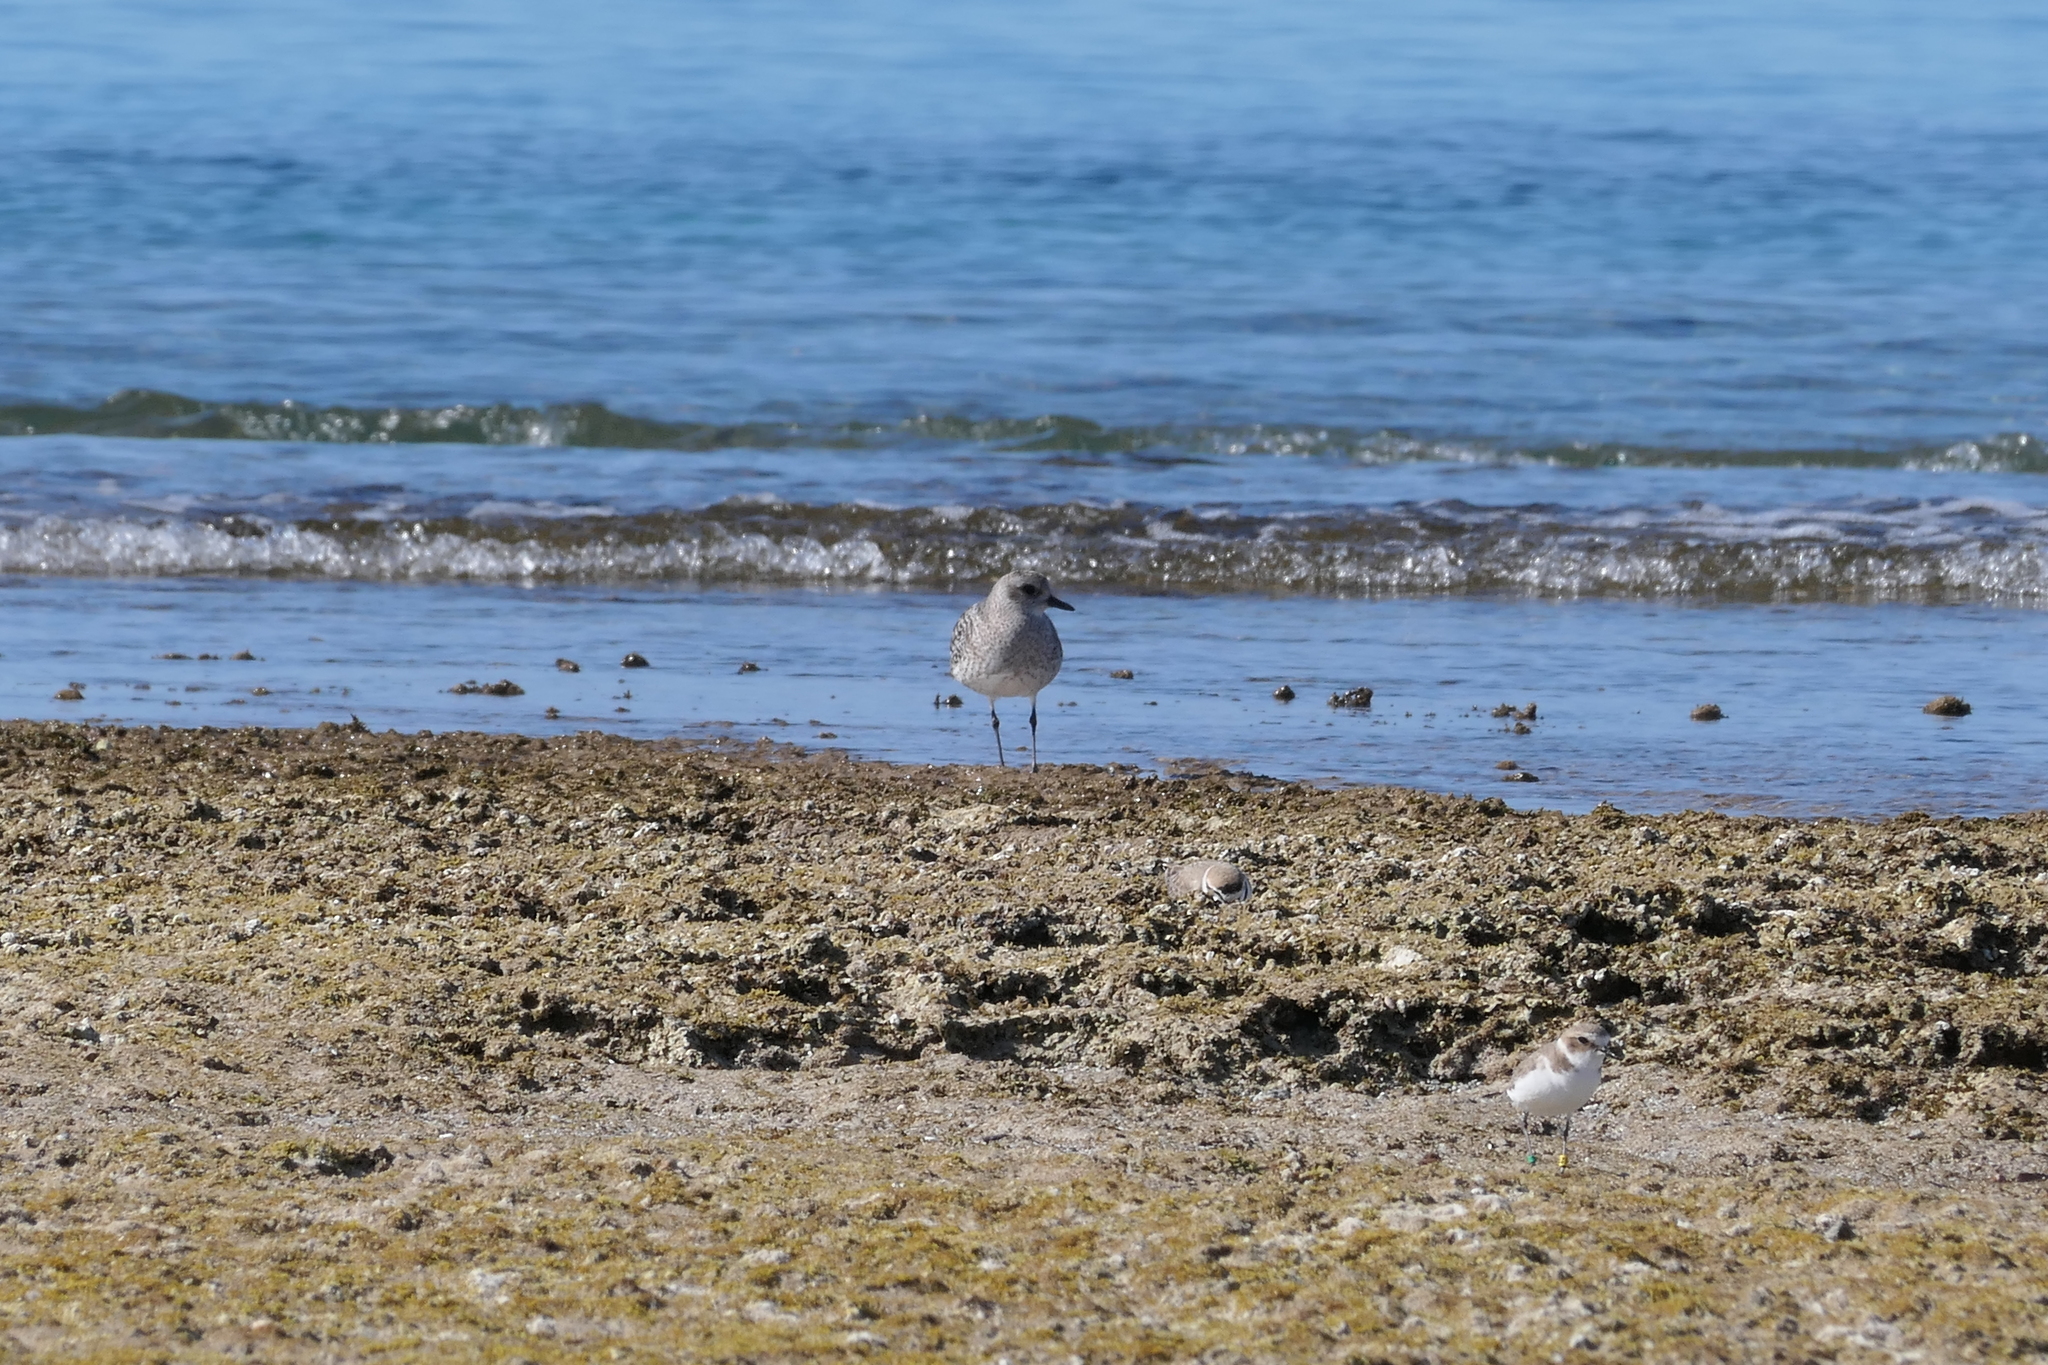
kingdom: Animalia
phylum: Chordata
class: Aves
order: Charadriiformes
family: Charadriidae
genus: Pluvialis
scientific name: Pluvialis squatarola
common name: Grey plover
